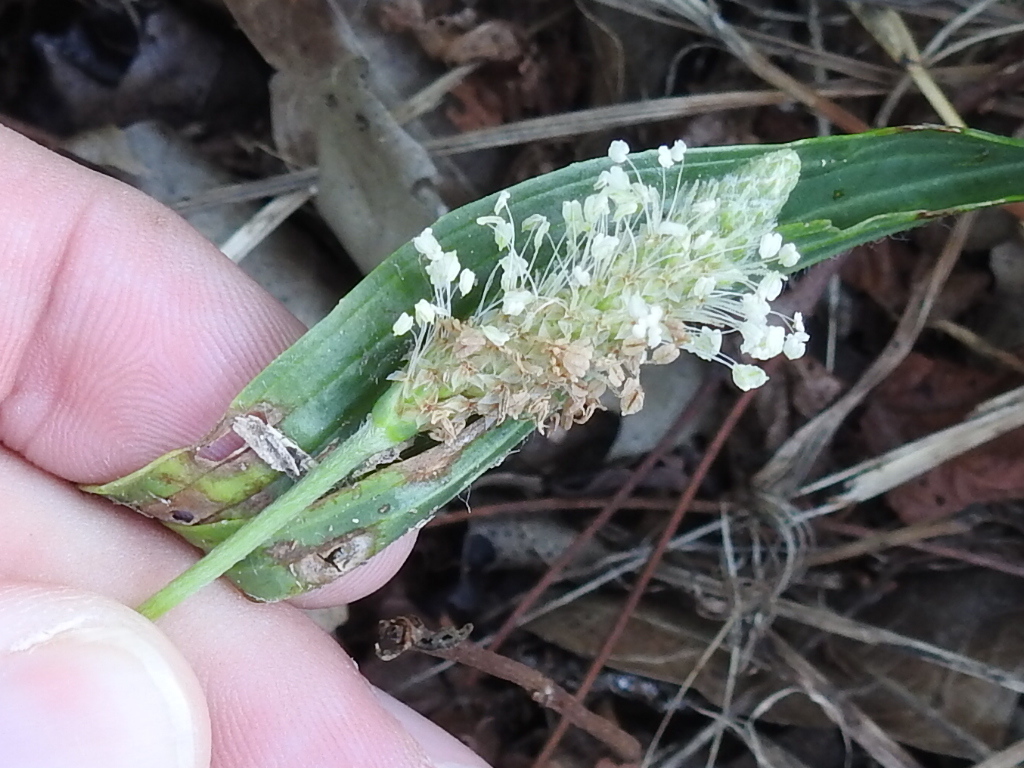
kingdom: Plantae
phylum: Tracheophyta
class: Magnoliopsida
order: Lamiales
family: Plantaginaceae
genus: Plantago
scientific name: Plantago lanceolata
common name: Ribwort plantain
